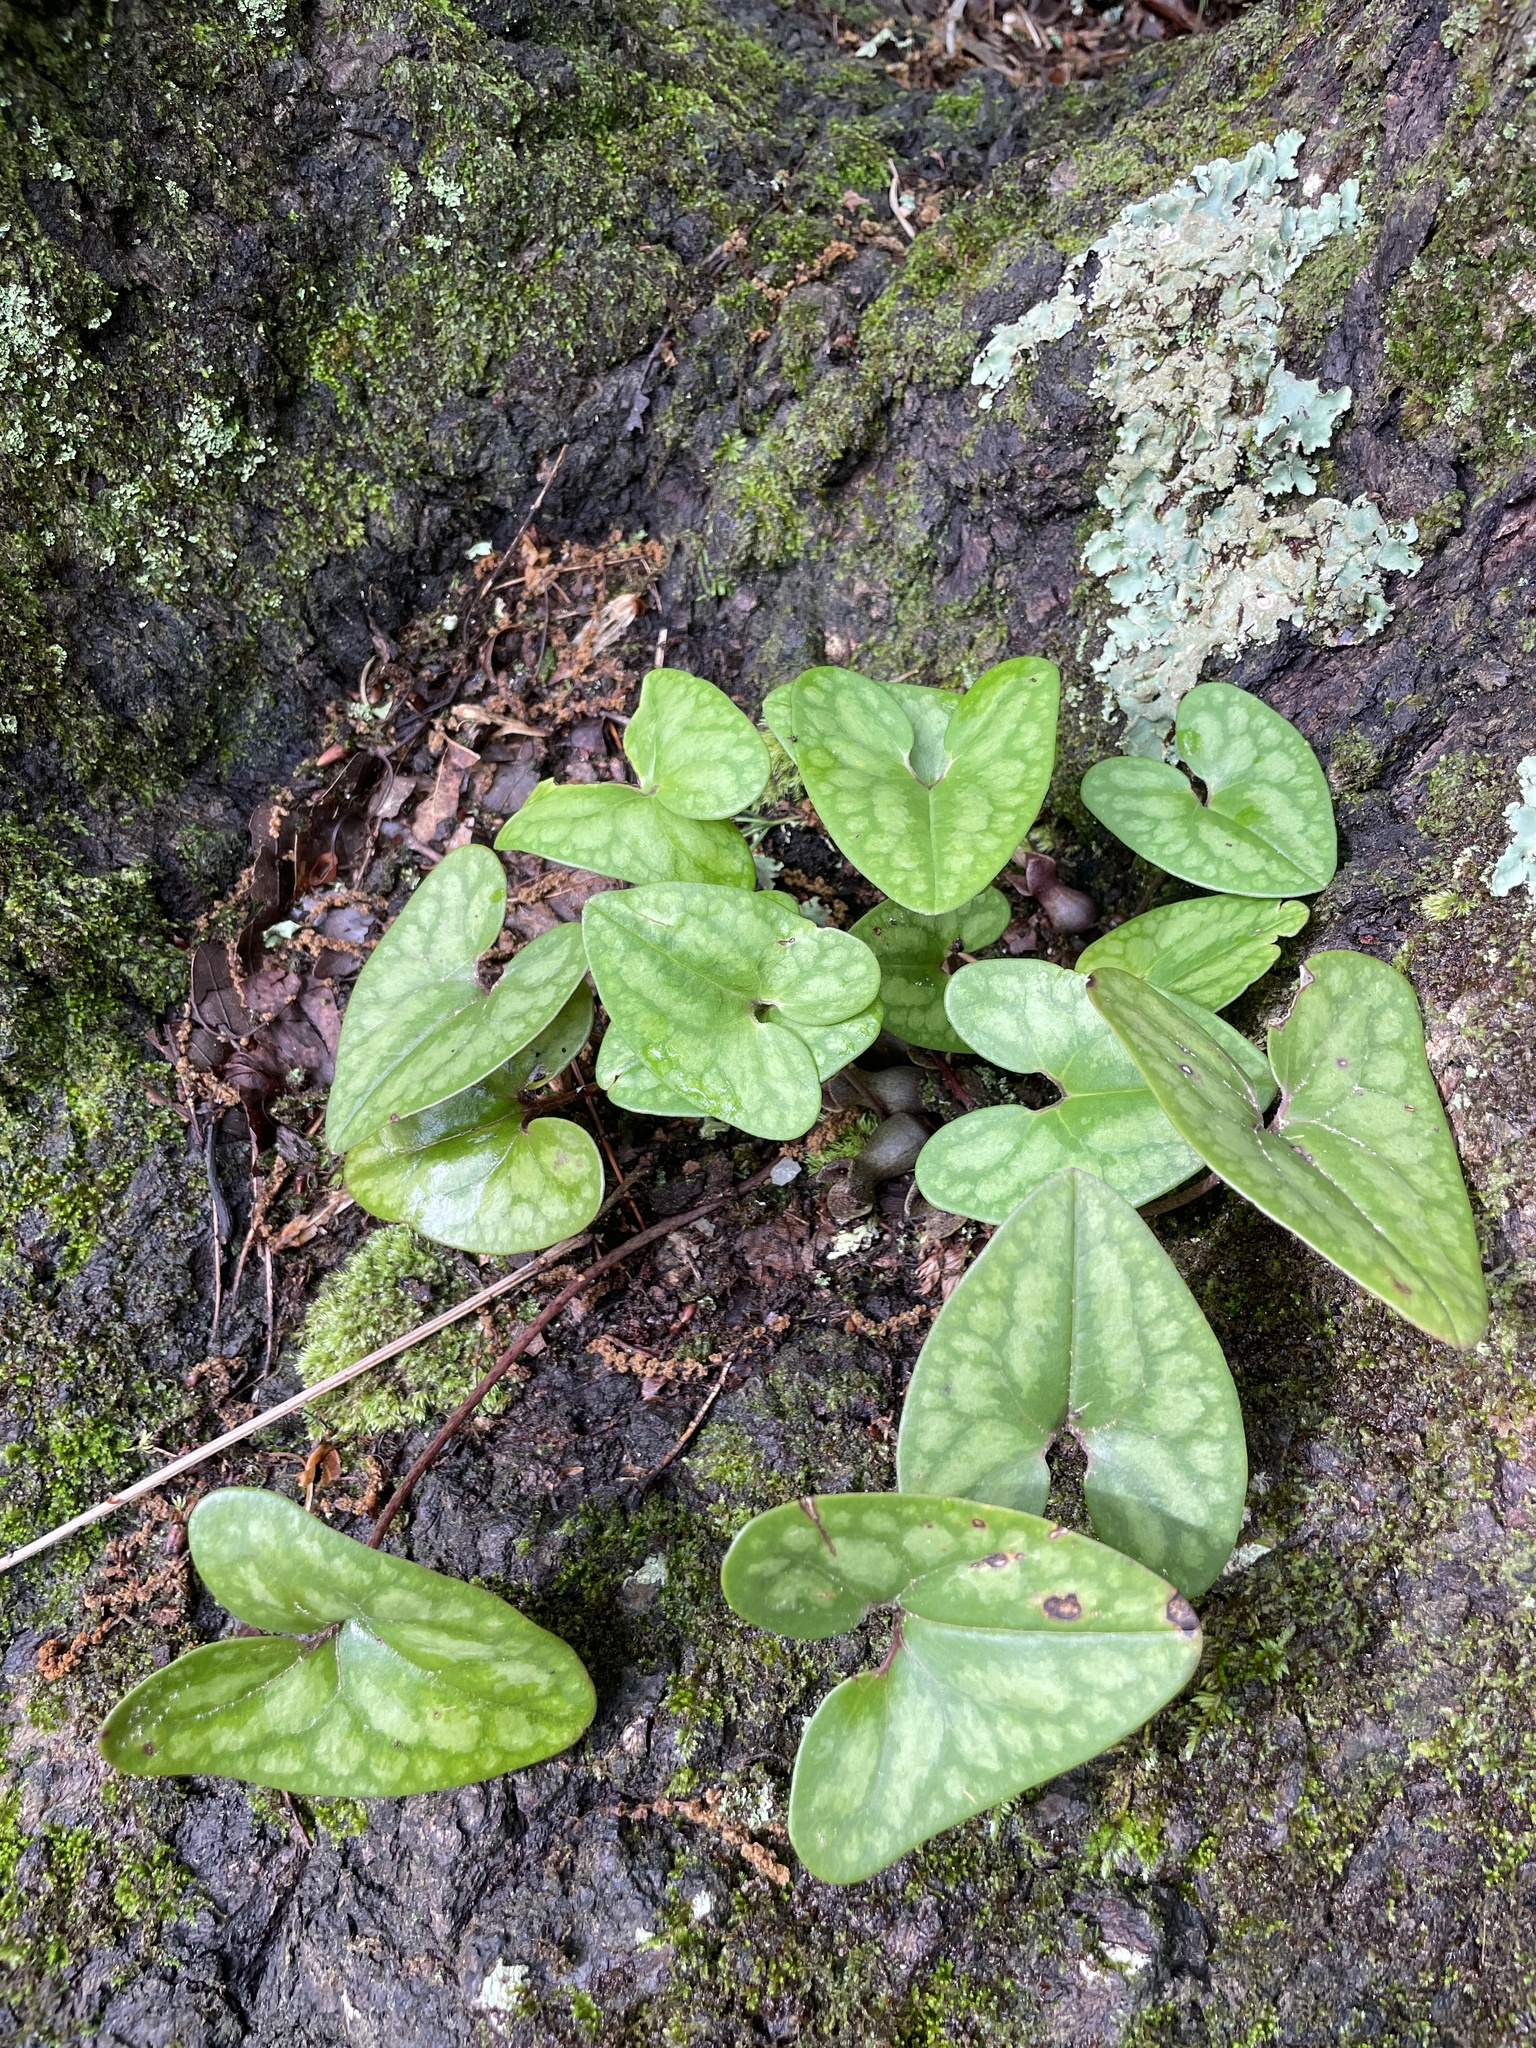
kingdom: Plantae
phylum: Tracheophyta
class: Magnoliopsida
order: Piperales
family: Aristolochiaceae
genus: Hexastylis
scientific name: Hexastylis arifolia
